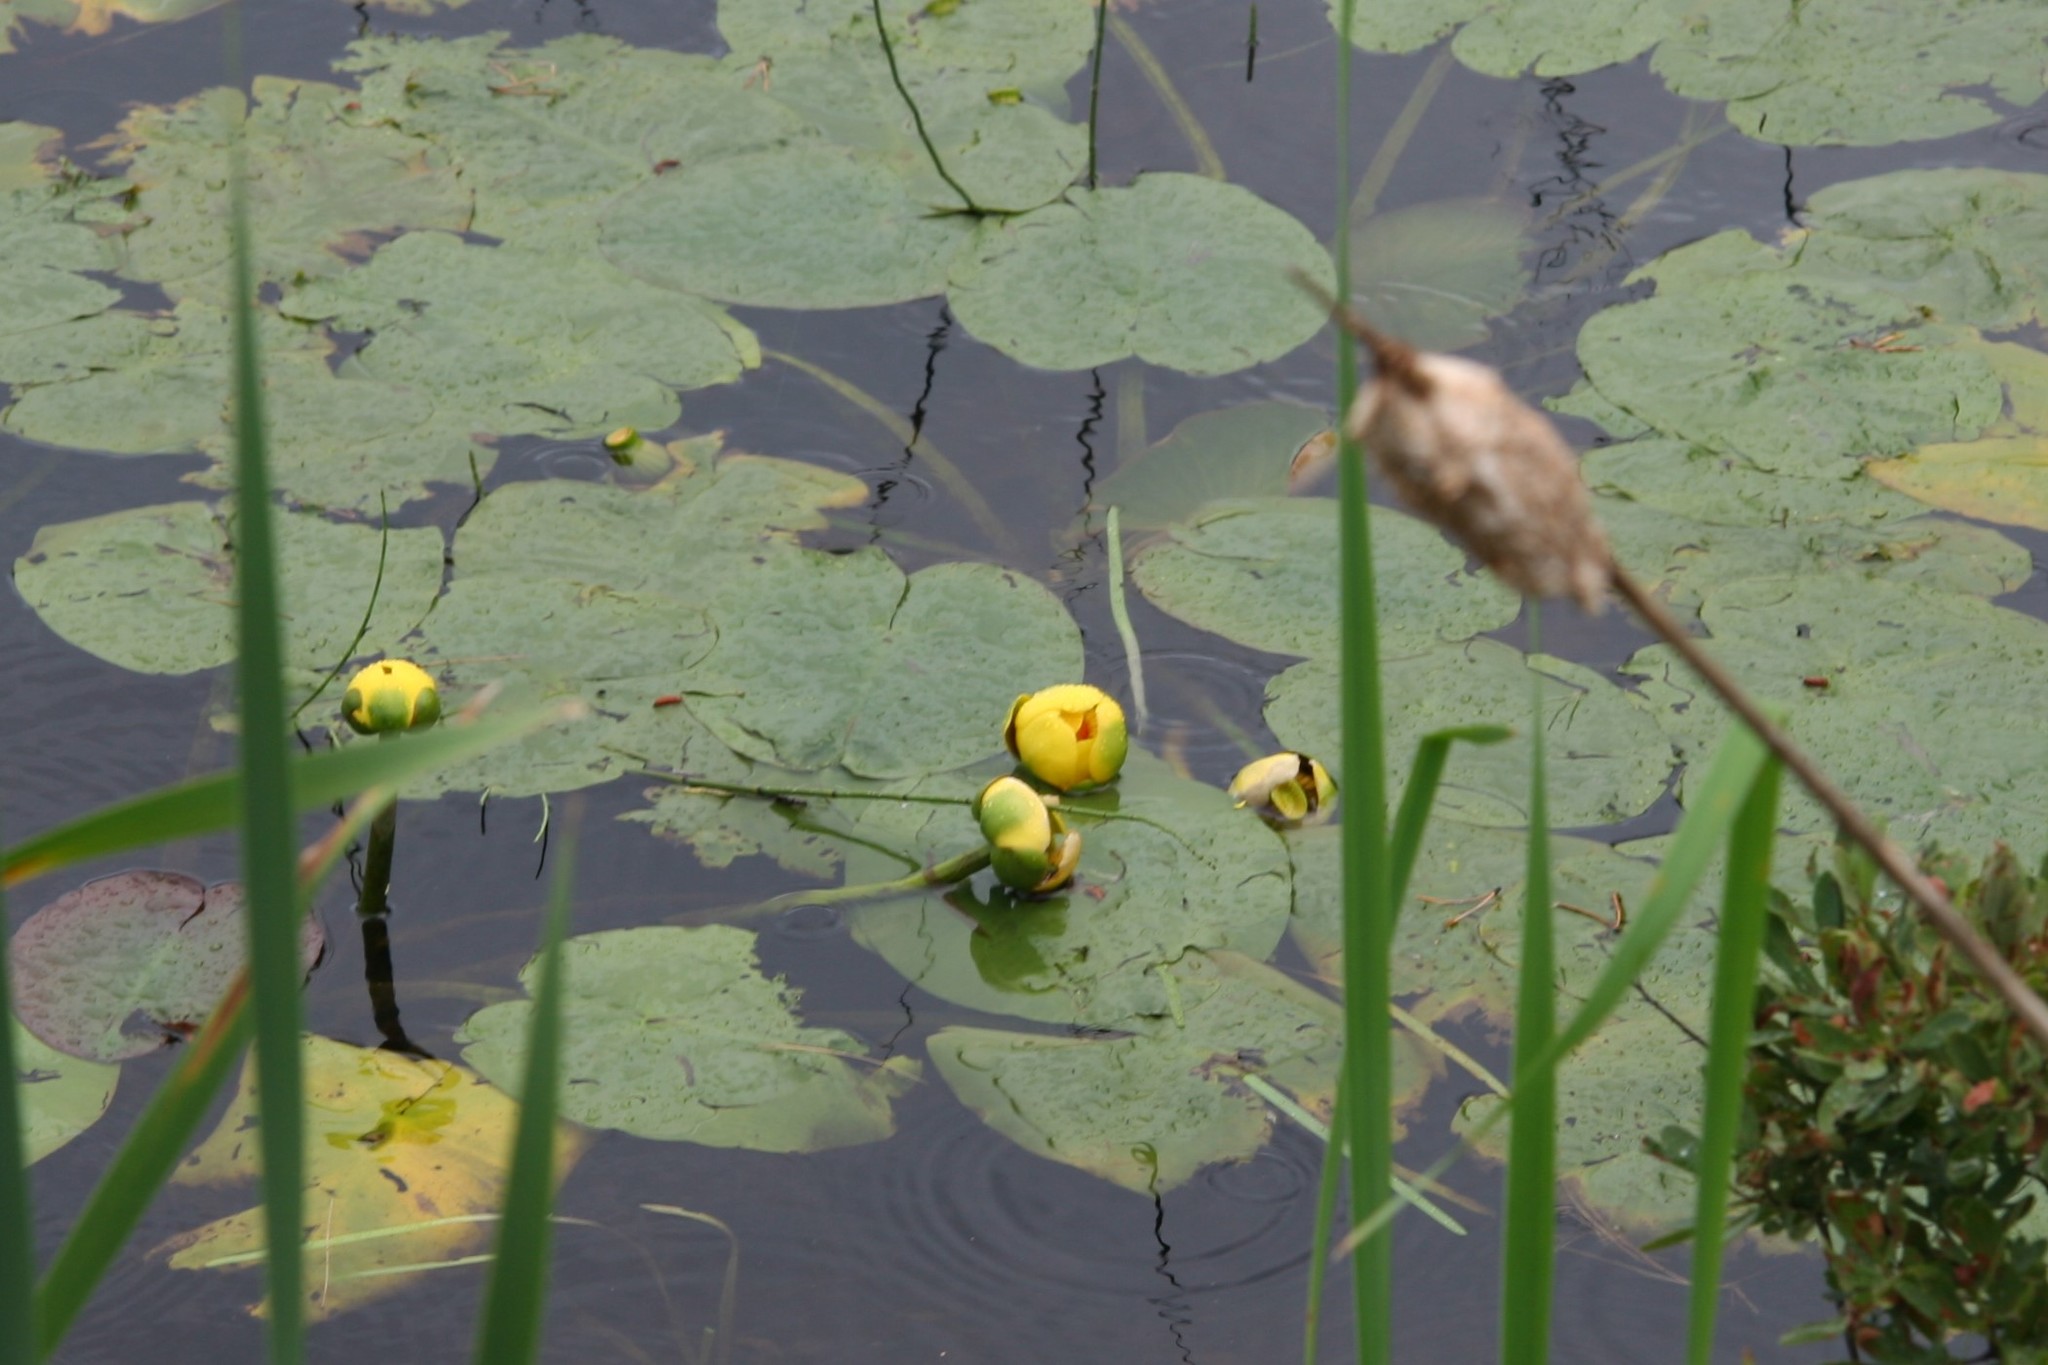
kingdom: Plantae
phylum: Tracheophyta
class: Magnoliopsida
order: Nymphaeales
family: Nymphaeaceae
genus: Nuphar
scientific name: Nuphar variegata
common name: Beaver-root
